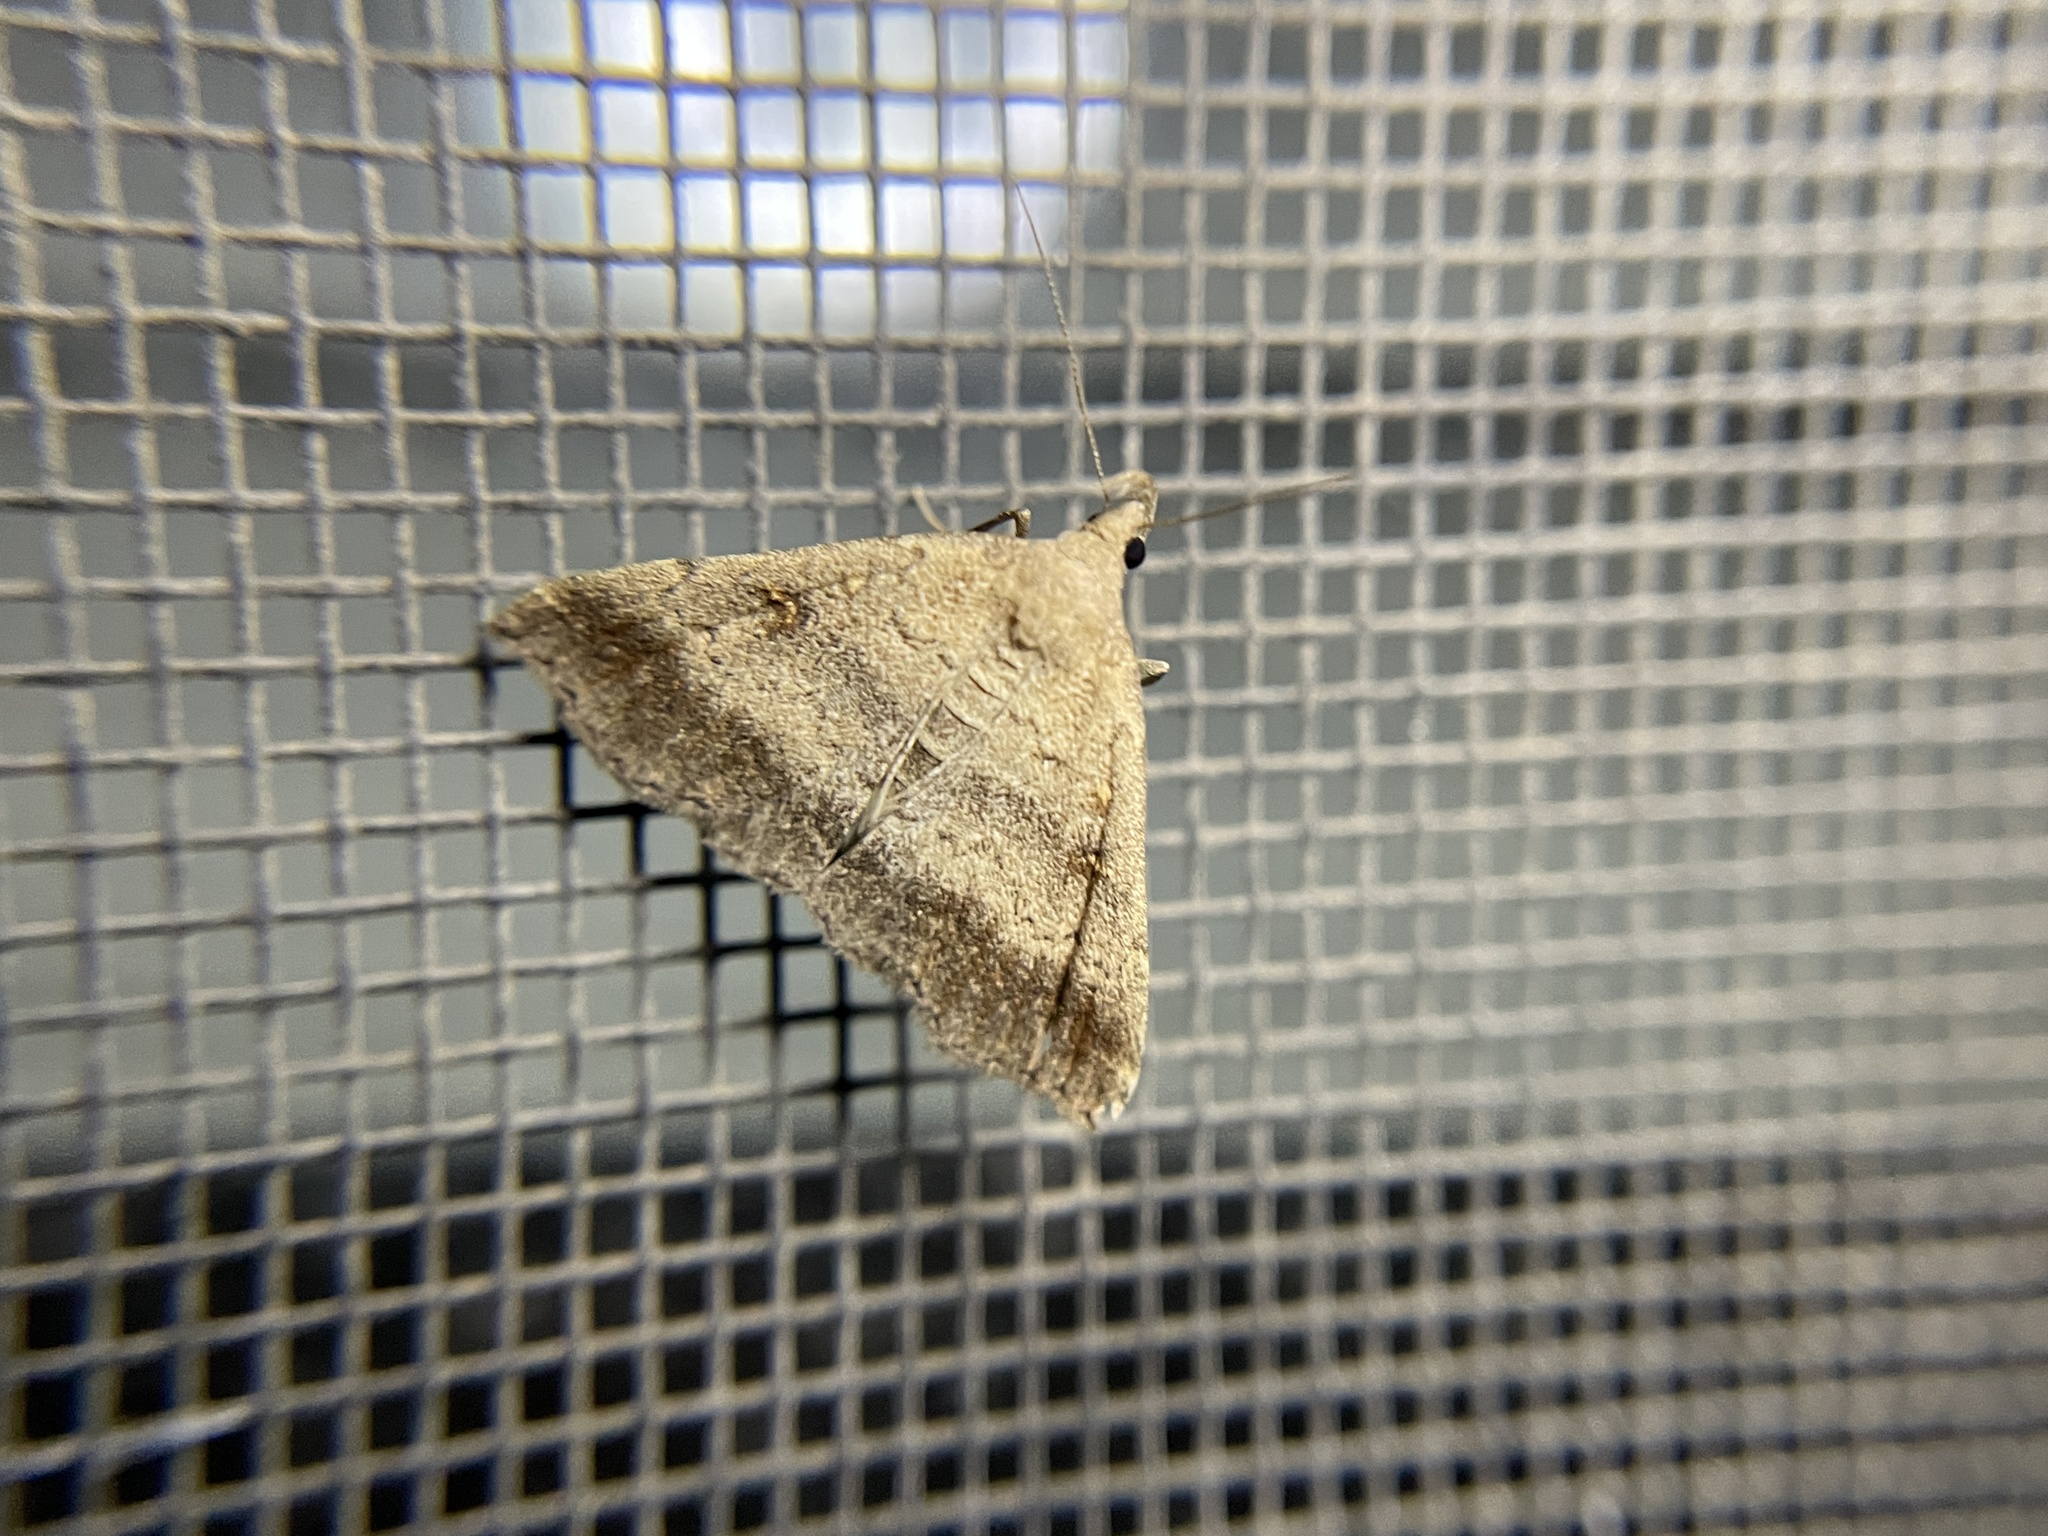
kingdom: Animalia
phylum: Arthropoda
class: Insecta
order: Lepidoptera
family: Erebidae
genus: Tetanolita
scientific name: Tetanolita palligera
